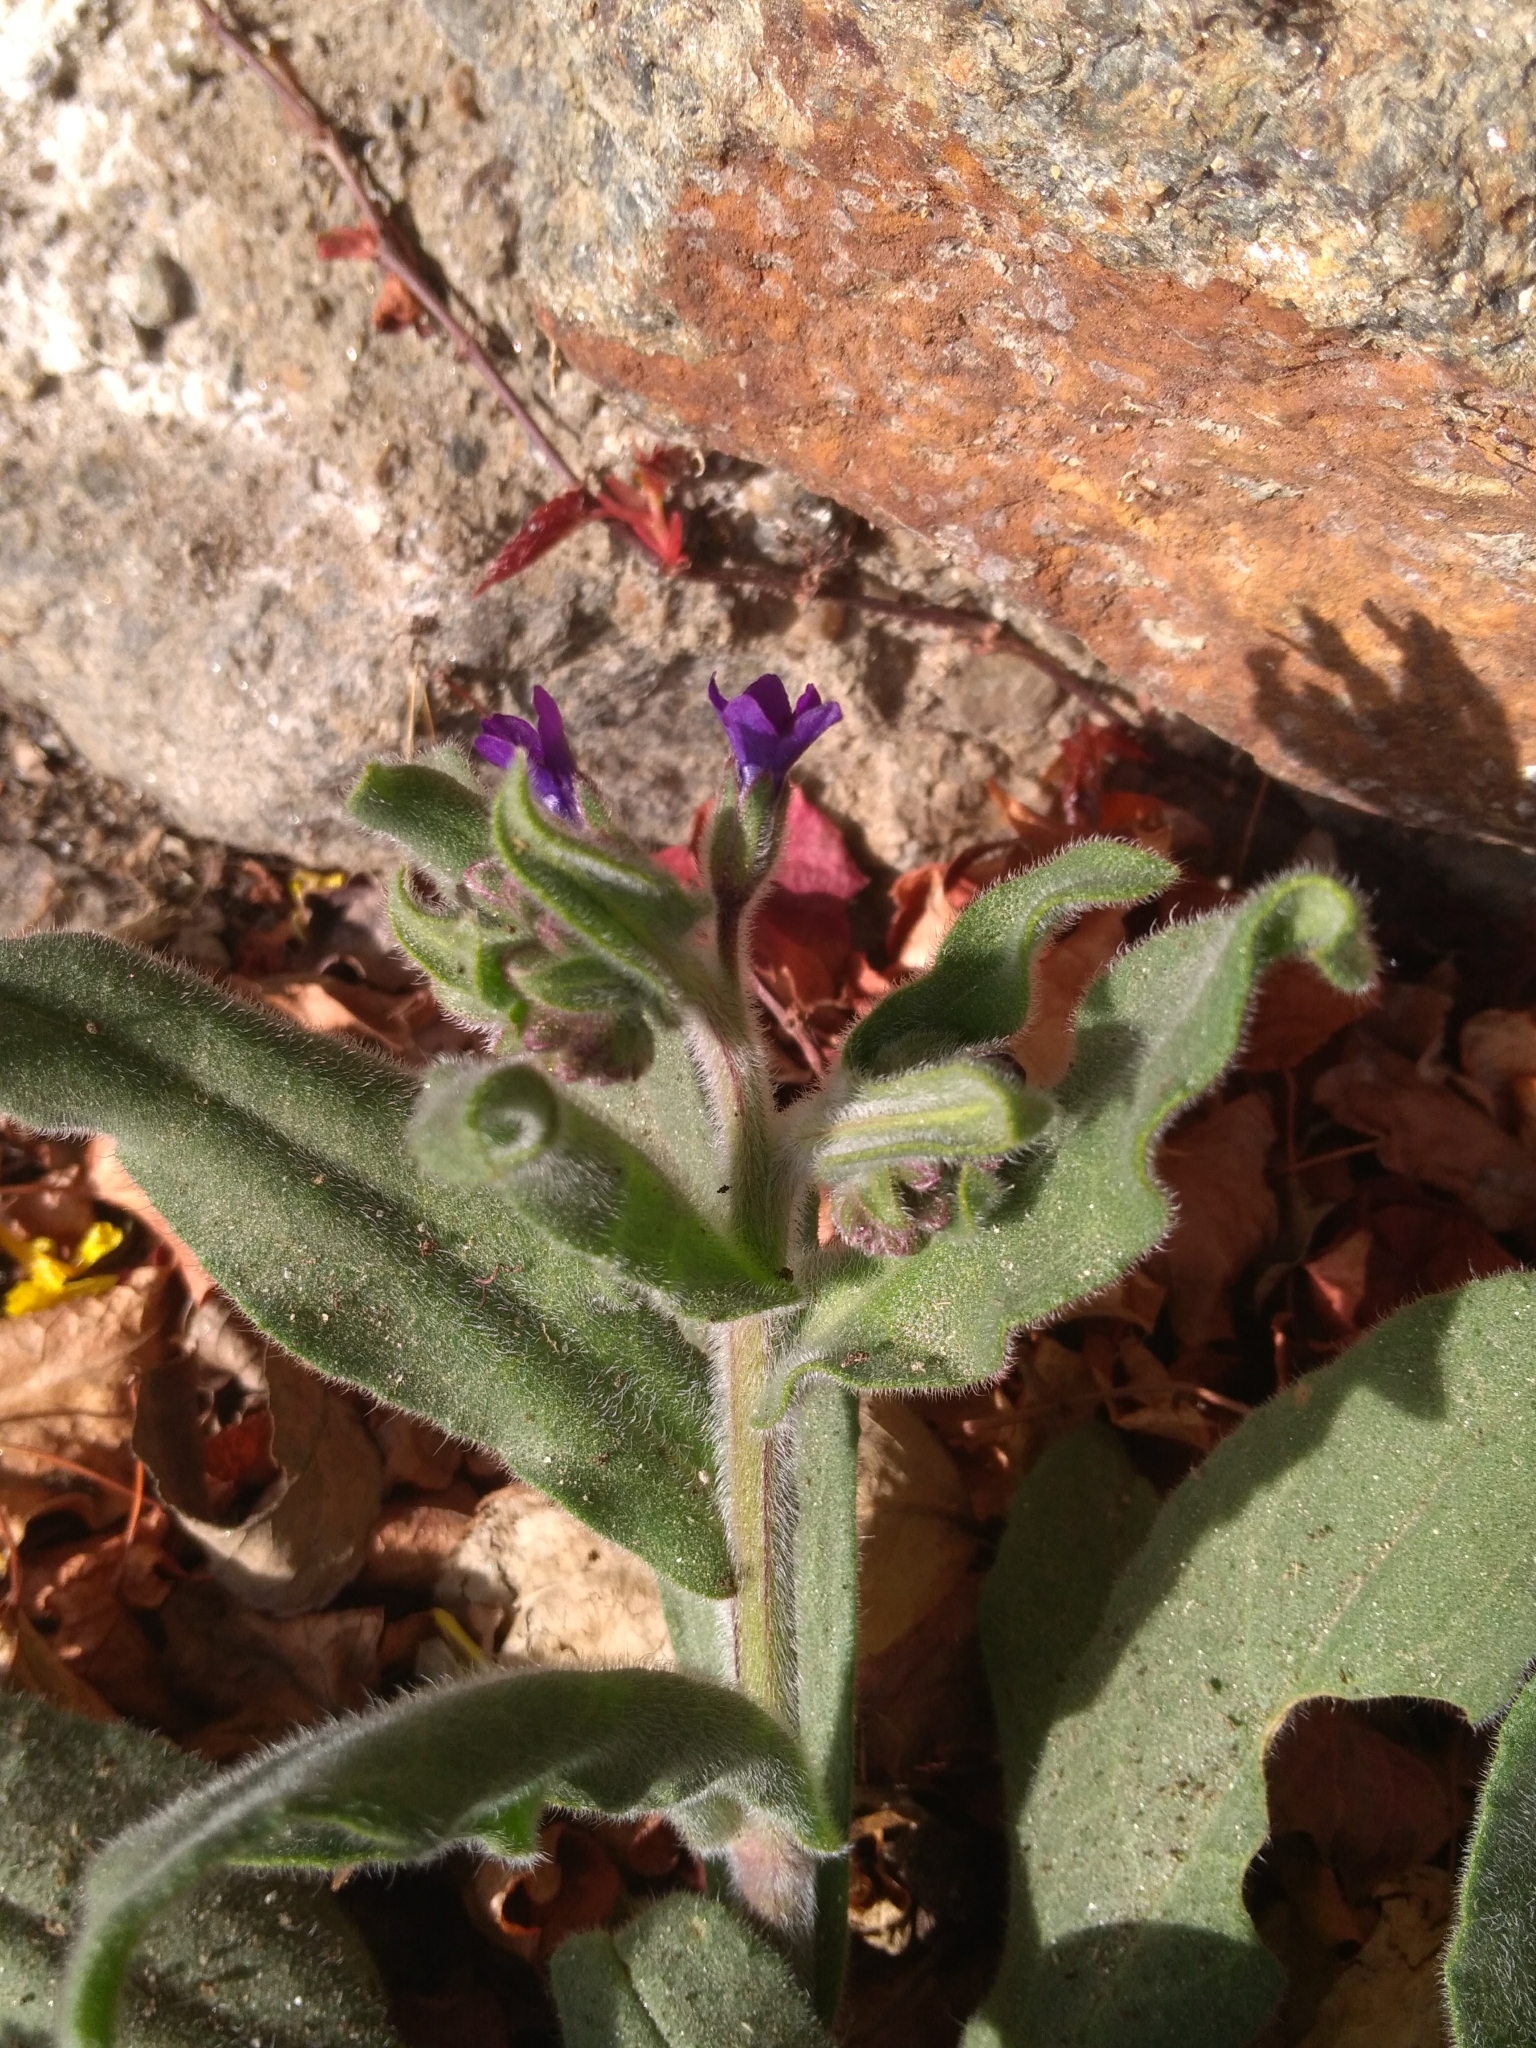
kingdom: Plantae
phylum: Tracheophyta
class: Magnoliopsida
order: Boraginales
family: Boraginaceae
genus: Anchusa
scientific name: Anchusa officinalis
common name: Alkanet
